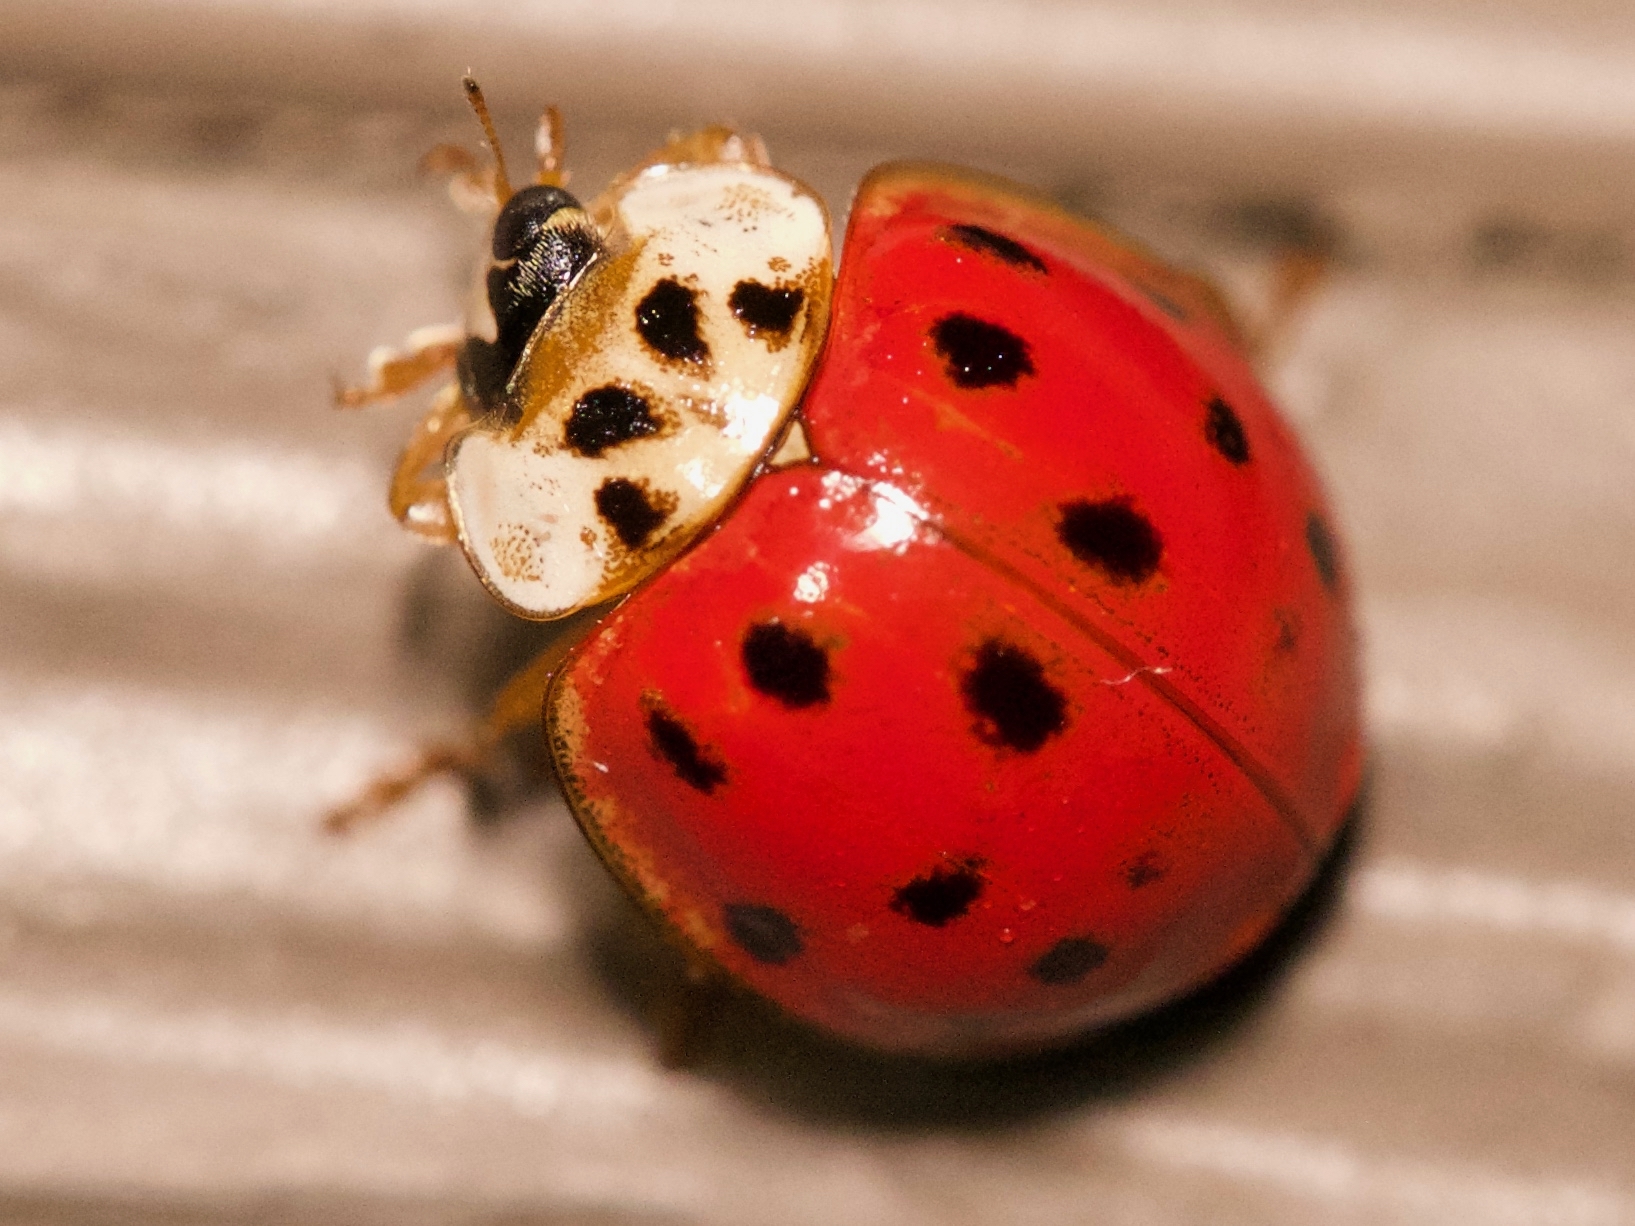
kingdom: Animalia
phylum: Arthropoda
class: Insecta
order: Coleoptera
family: Coccinellidae
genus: Harmonia
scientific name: Harmonia axyridis
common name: Harlequin ladybird
